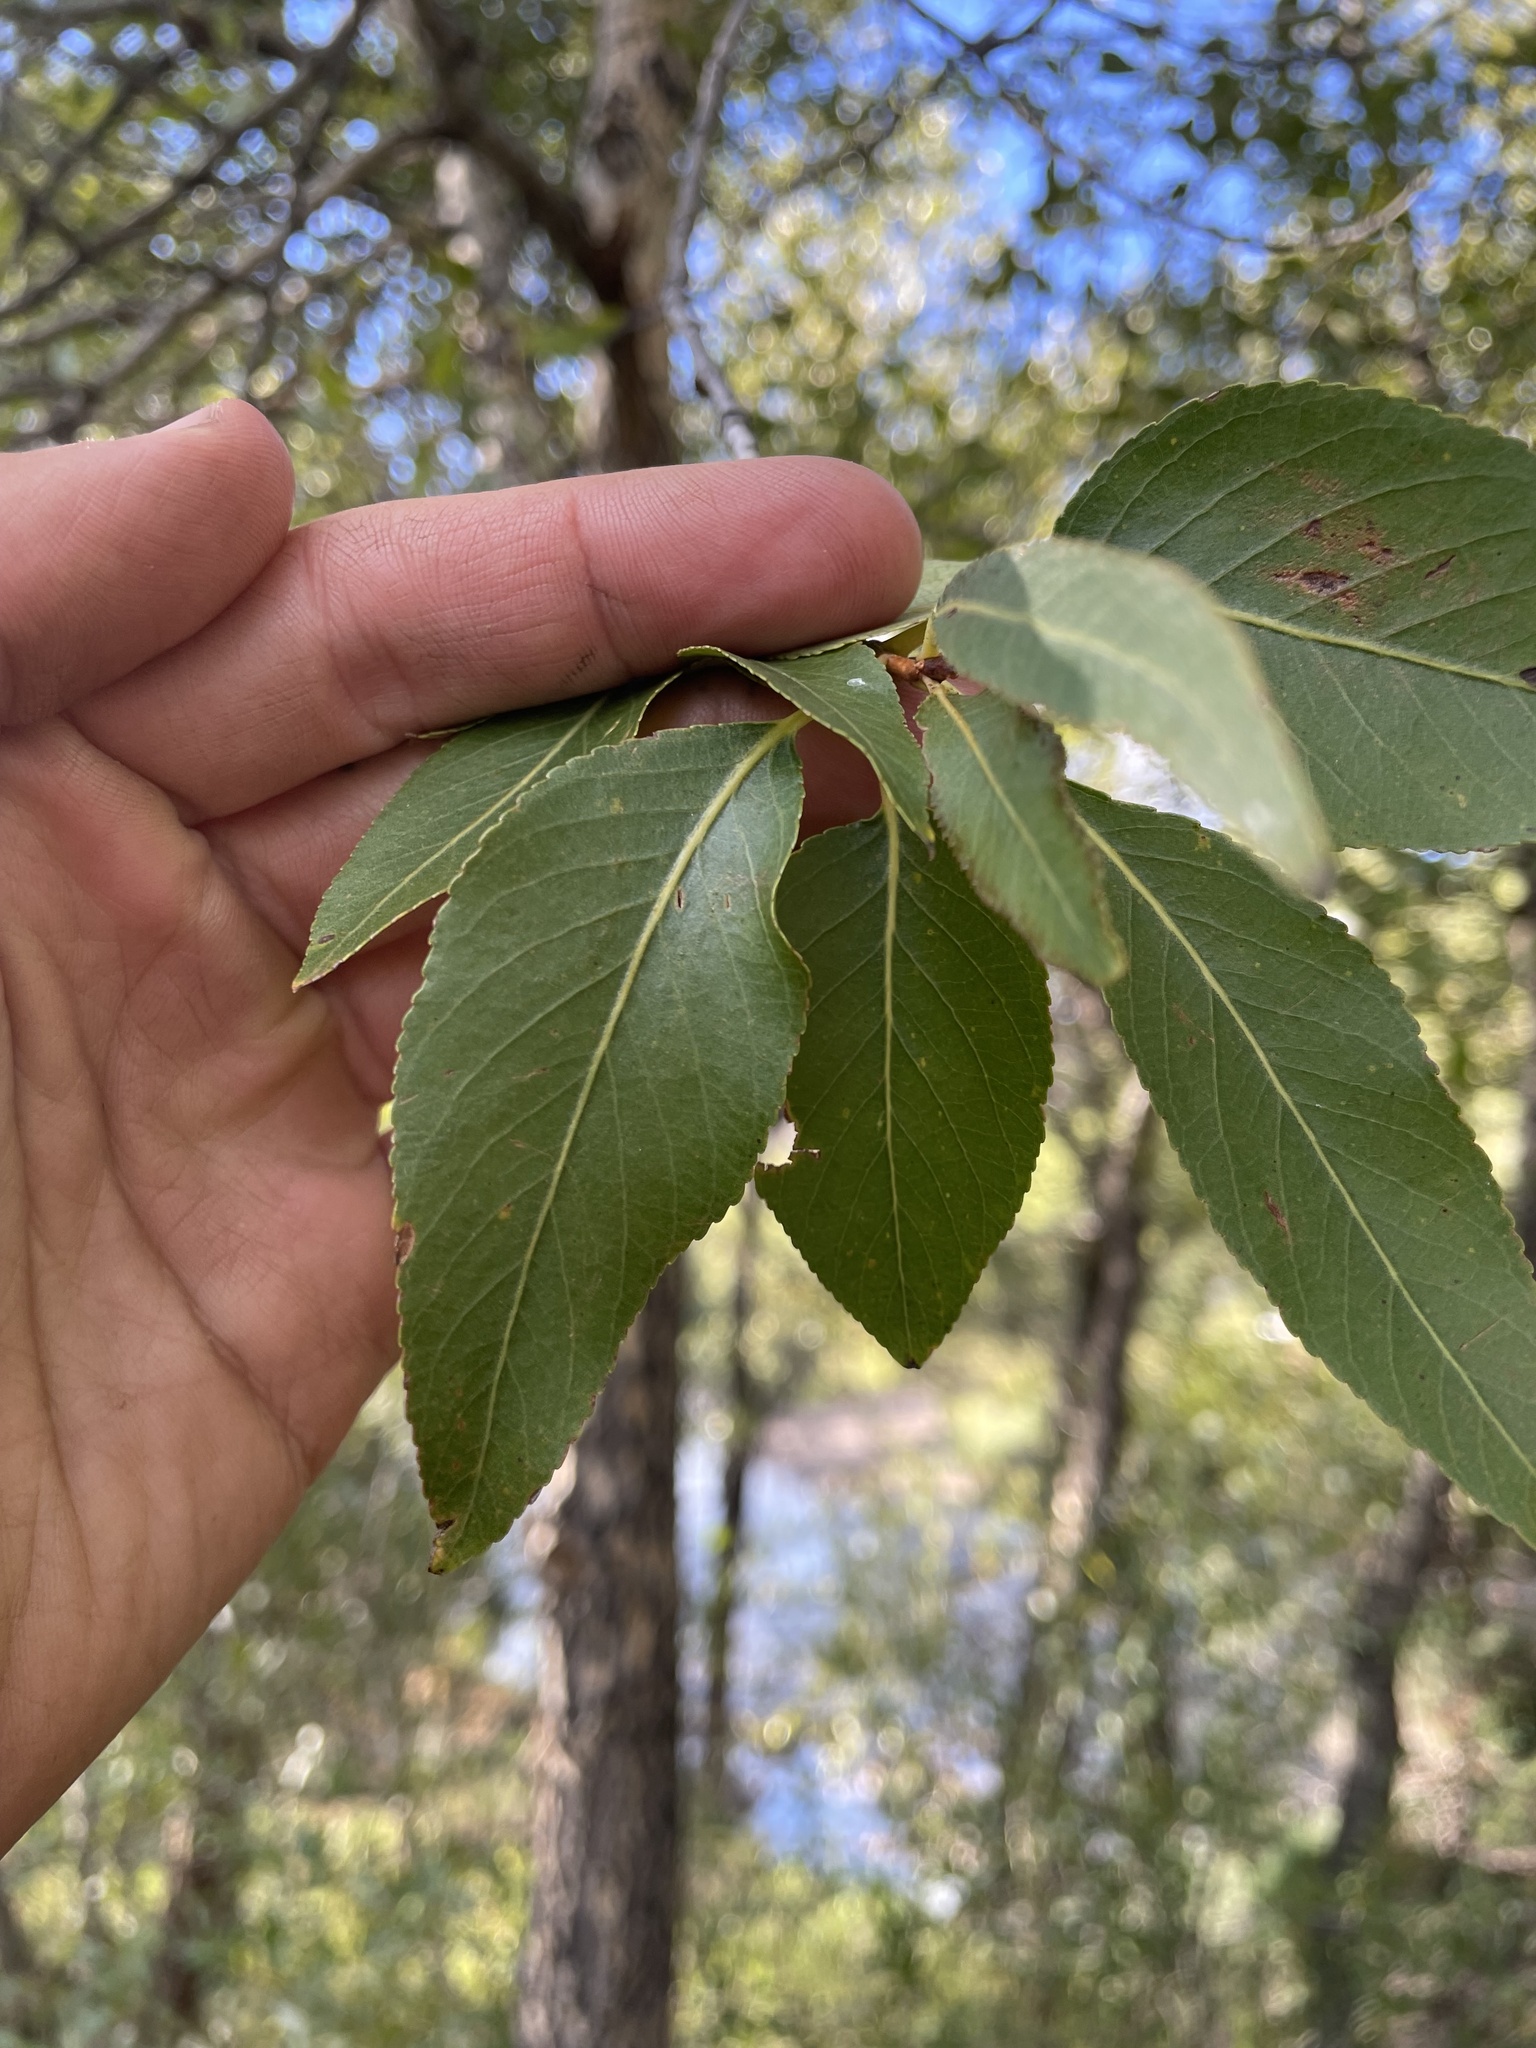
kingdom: Plantae
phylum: Tracheophyta
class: Magnoliopsida
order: Malpighiales
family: Salicaceae
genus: Populus
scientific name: Populus angustifolia
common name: Willow cottonwood
